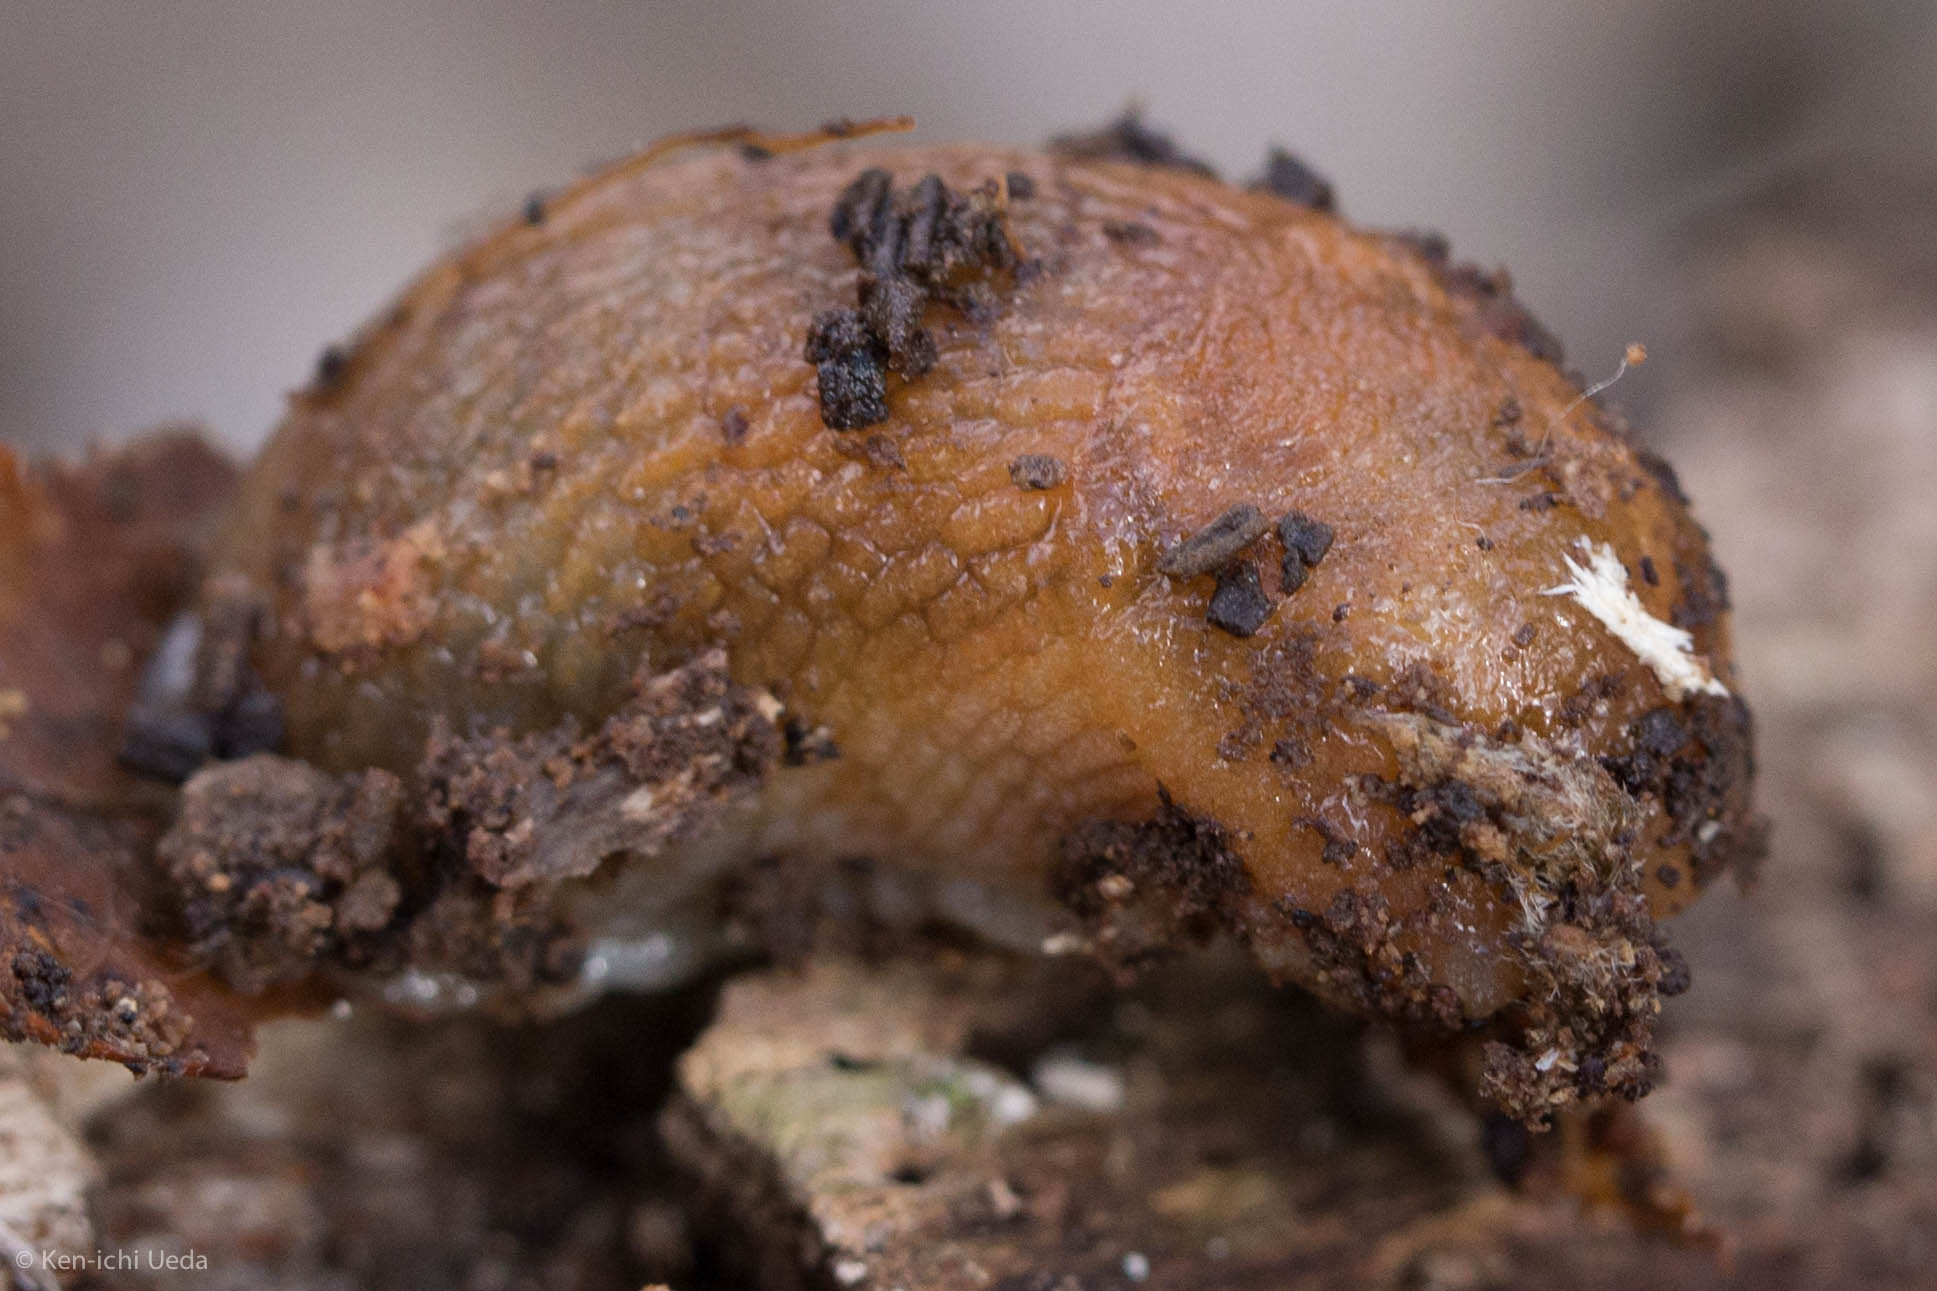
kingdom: Animalia
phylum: Mollusca
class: Gastropoda
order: Stylommatophora
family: Arionidae
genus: Arion
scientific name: Arion subfuscus
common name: Dusky arion
